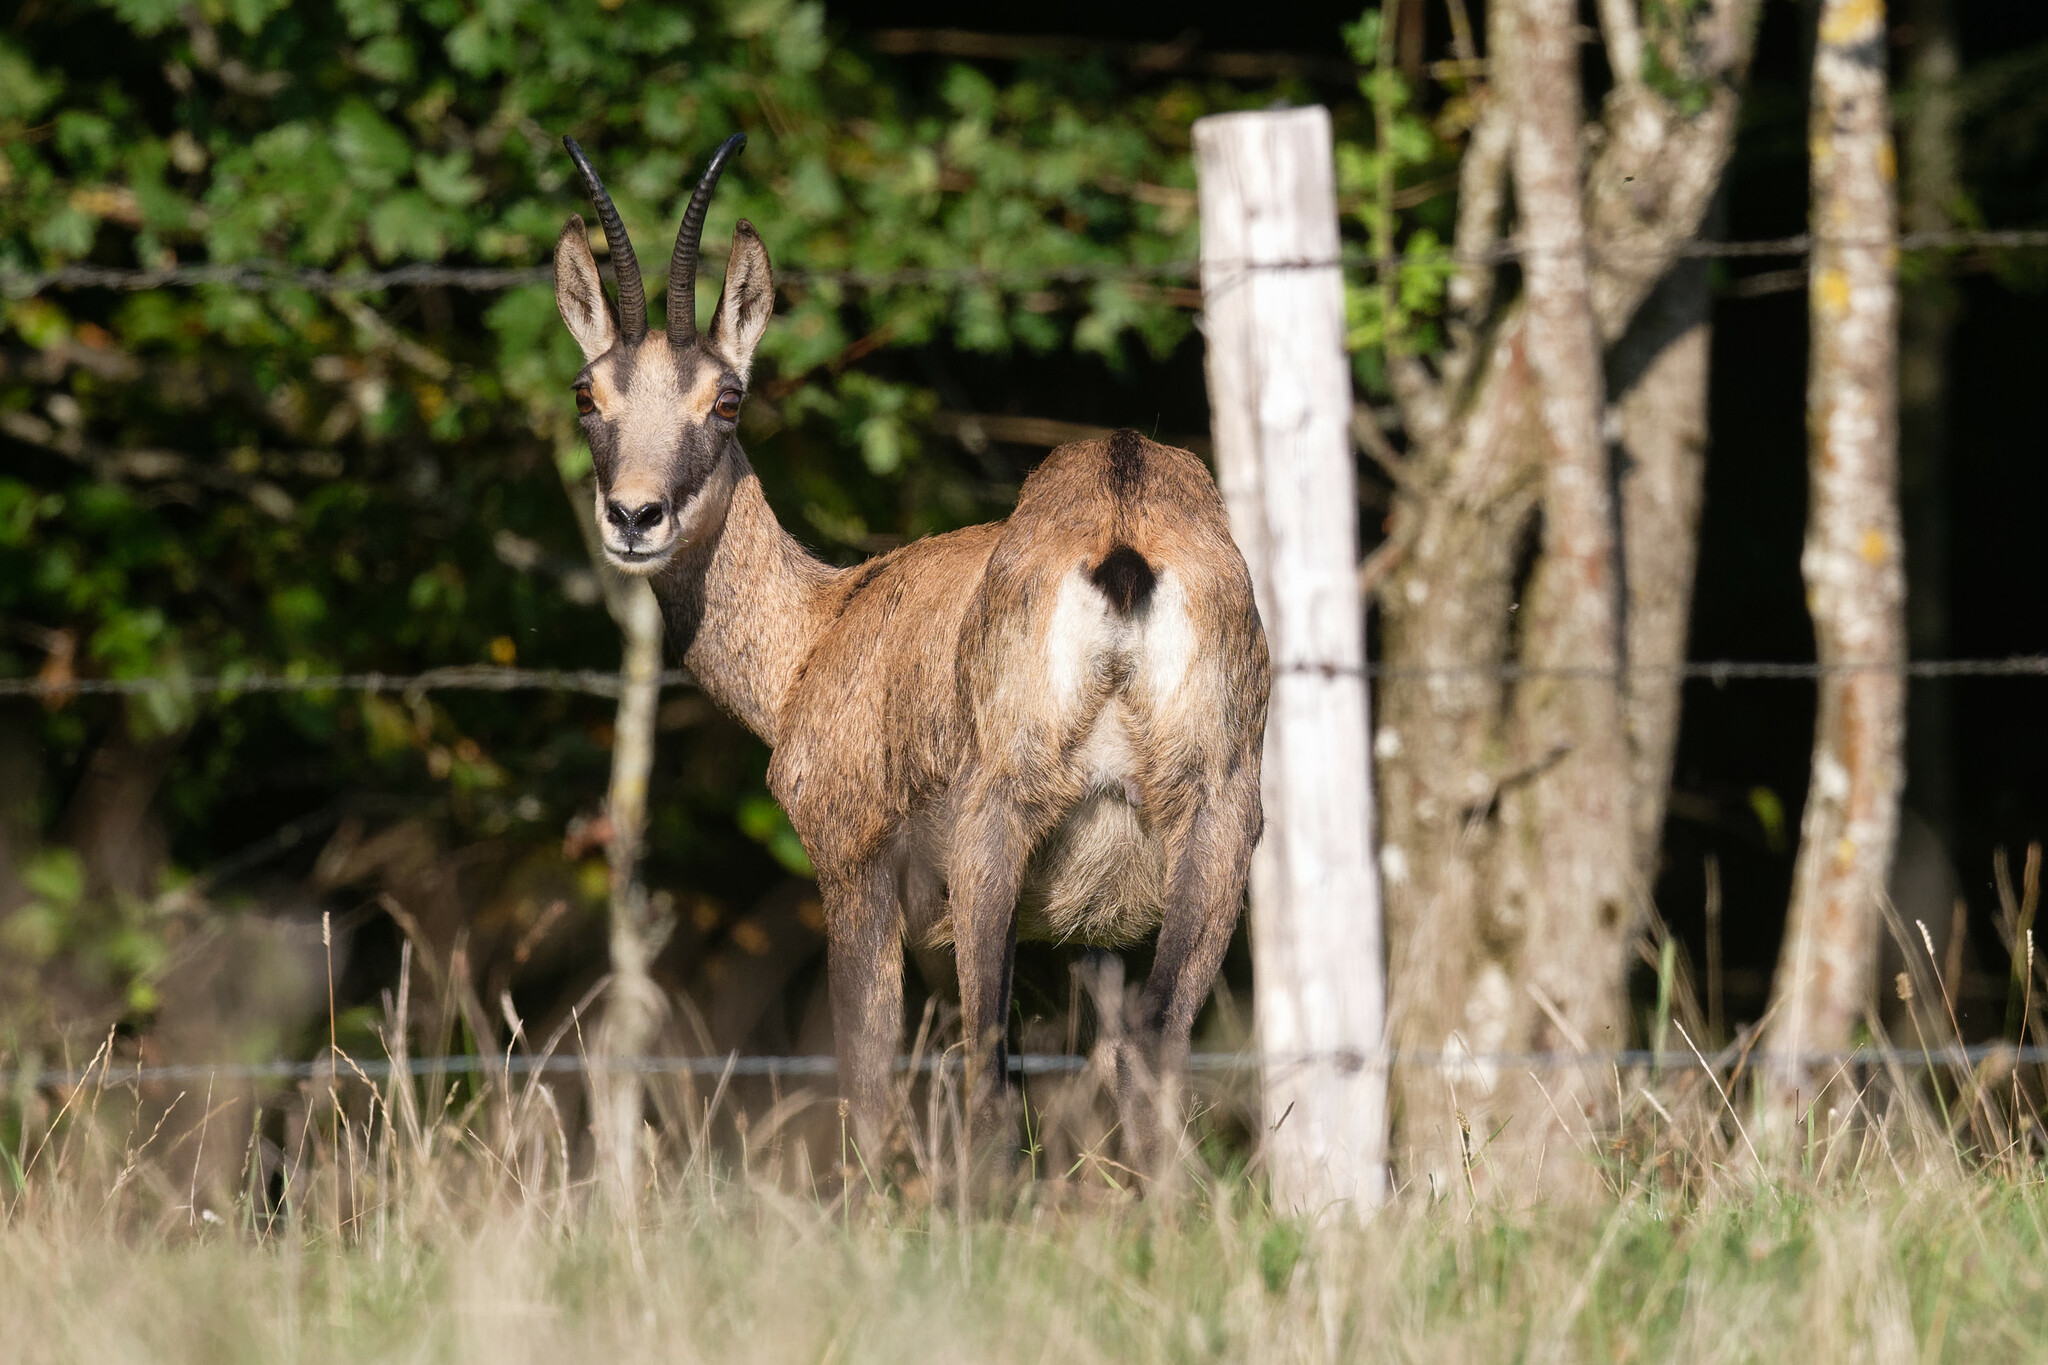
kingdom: Animalia
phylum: Chordata
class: Mammalia
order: Artiodactyla
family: Bovidae
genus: Rupicapra
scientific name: Rupicapra rupicapra
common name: Chamois
